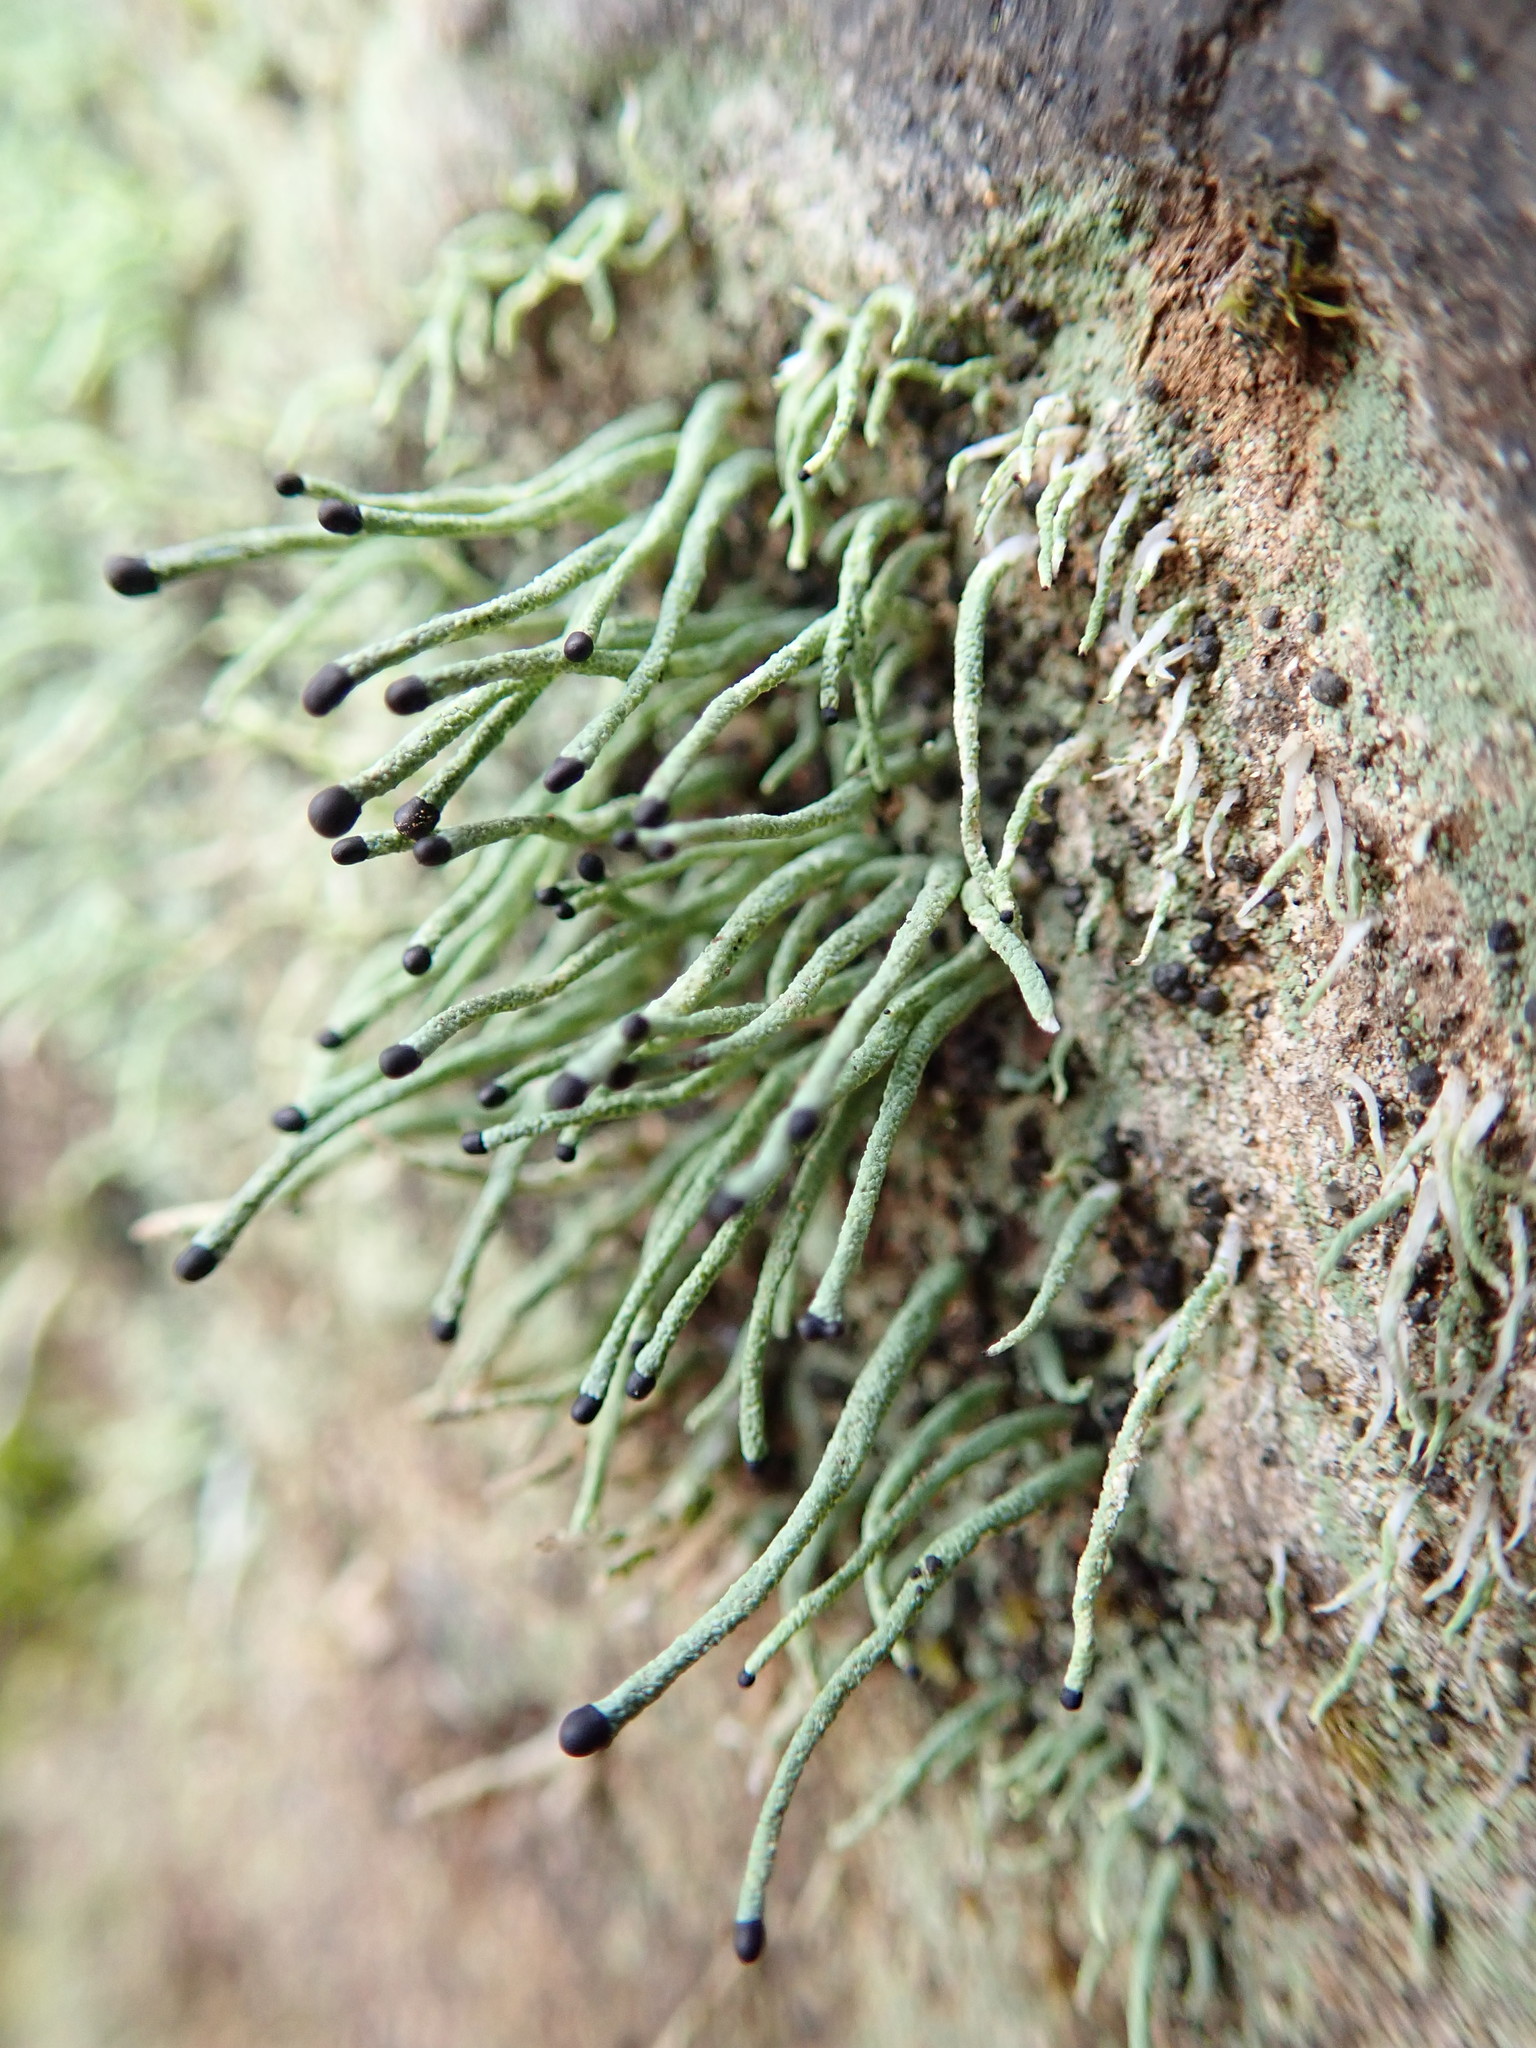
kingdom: Fungi
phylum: Ascomycota
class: Lecanoromycetes
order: Lecanorales
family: Cladoniaceae
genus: Pilophorus
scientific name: Pilophorus acicularis
